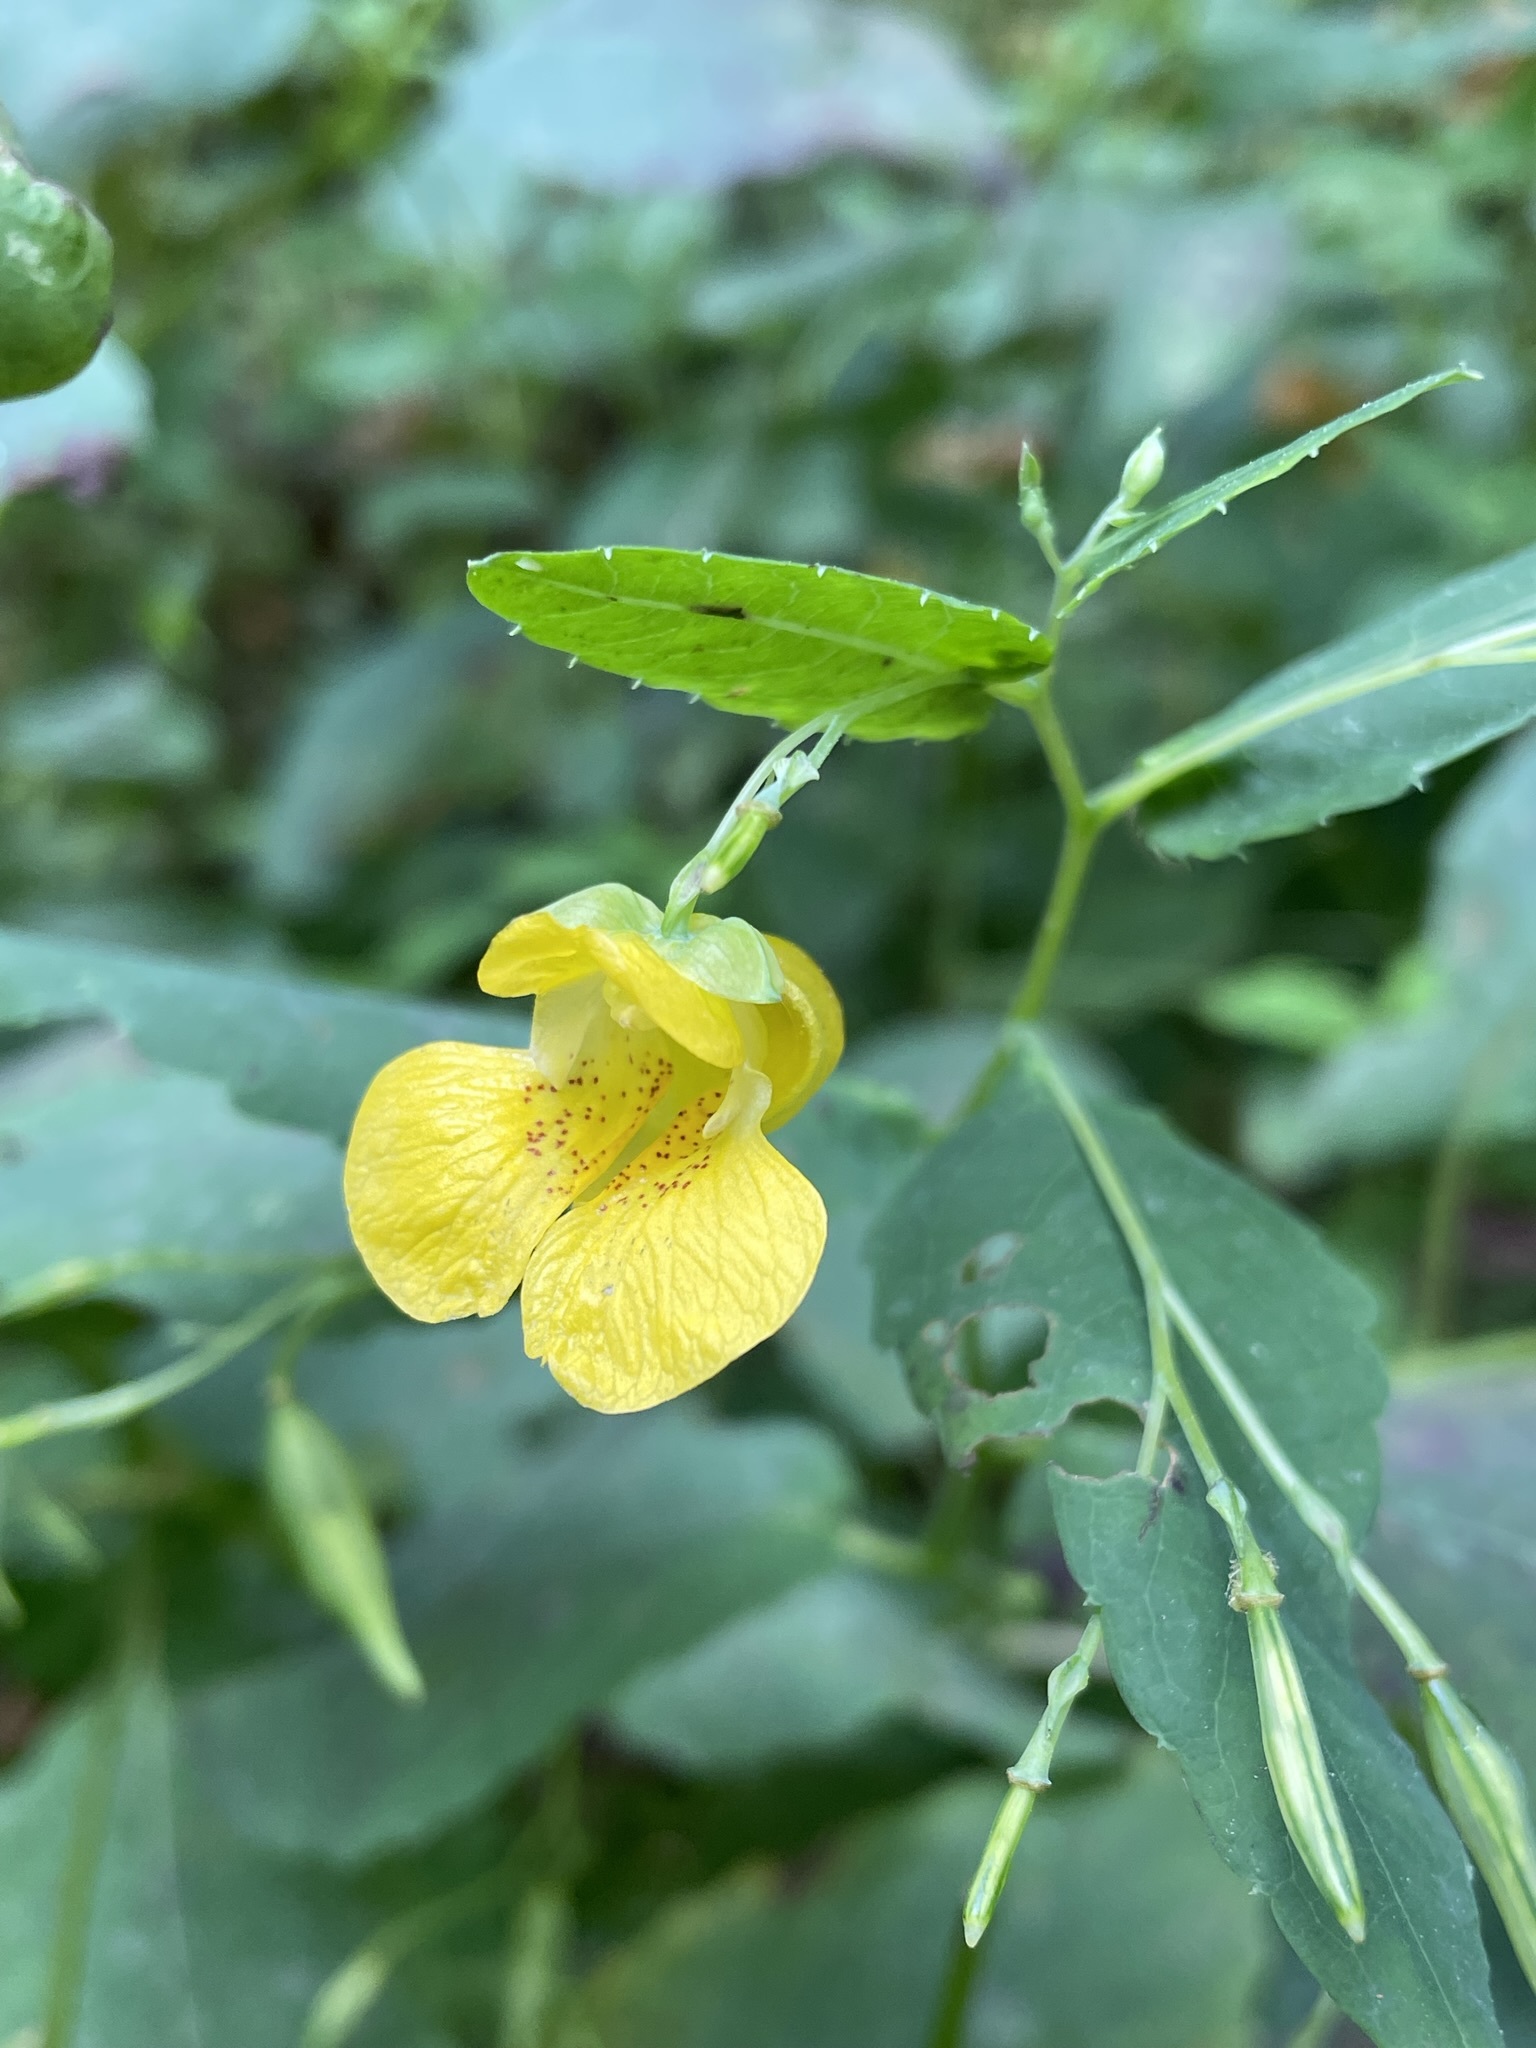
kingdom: Plantae
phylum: Tracheophyta
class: Magnoliopsida
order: Ericales
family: Balsaminaceae
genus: Impatiens
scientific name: Impatiens pallida
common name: Pale snapweed
